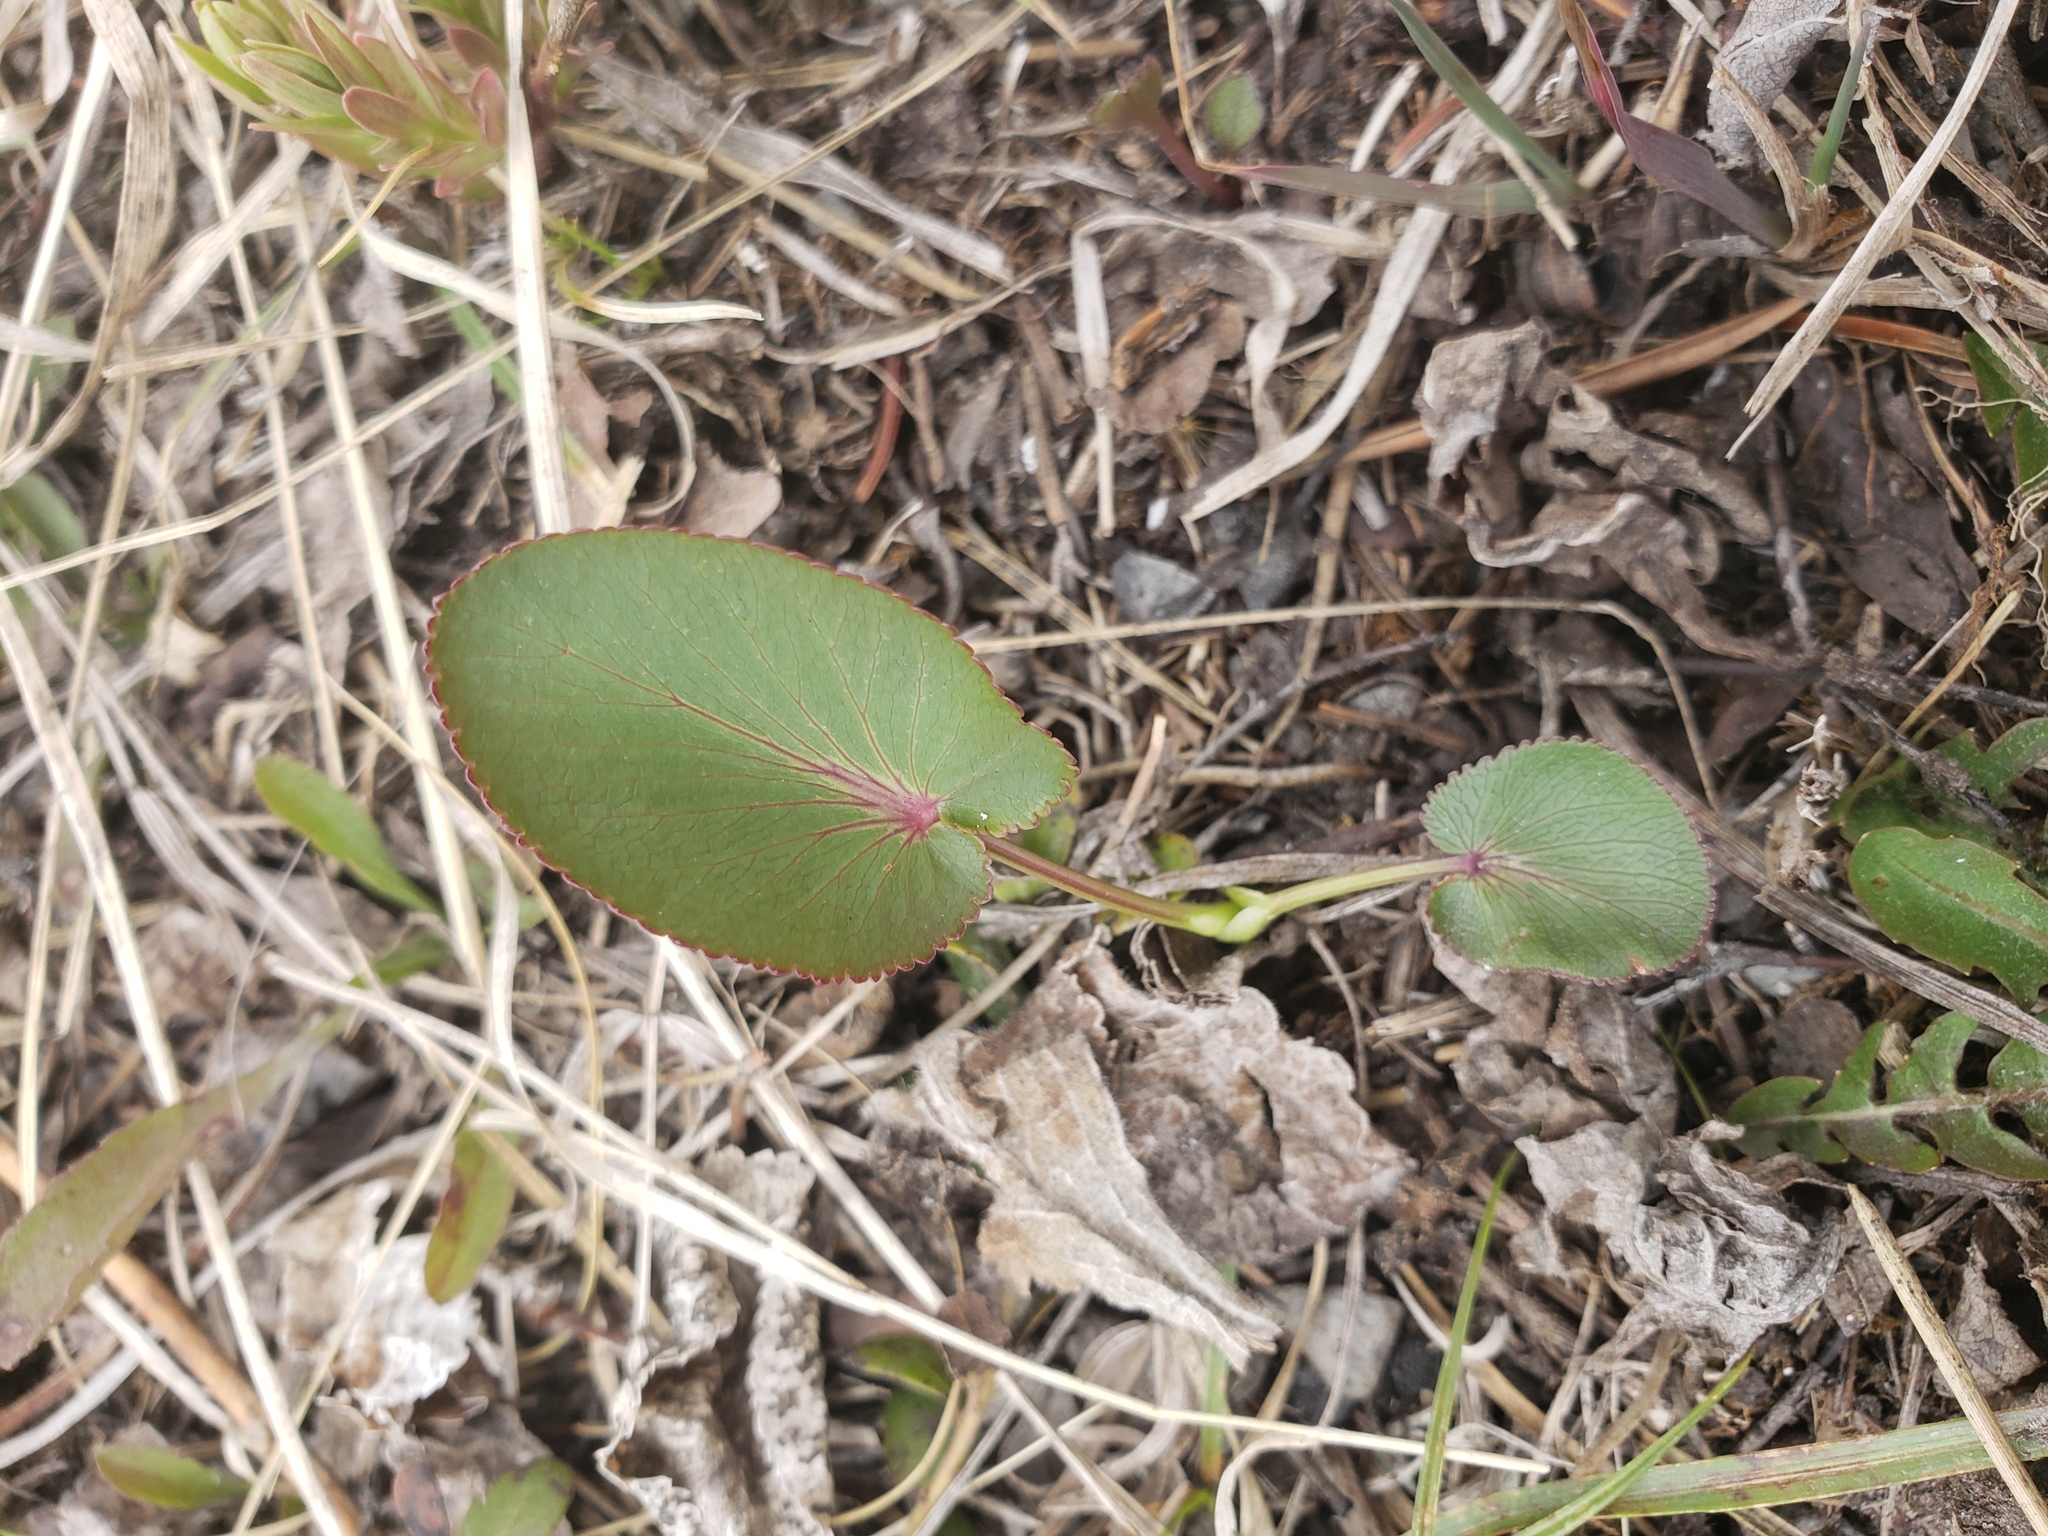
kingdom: Plantae
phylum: Tracheophyta
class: Magnoliopsida
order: Apiales
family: Apiaceae
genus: Zizia
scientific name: Zizia aptera
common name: Heart-leaved alexanders
